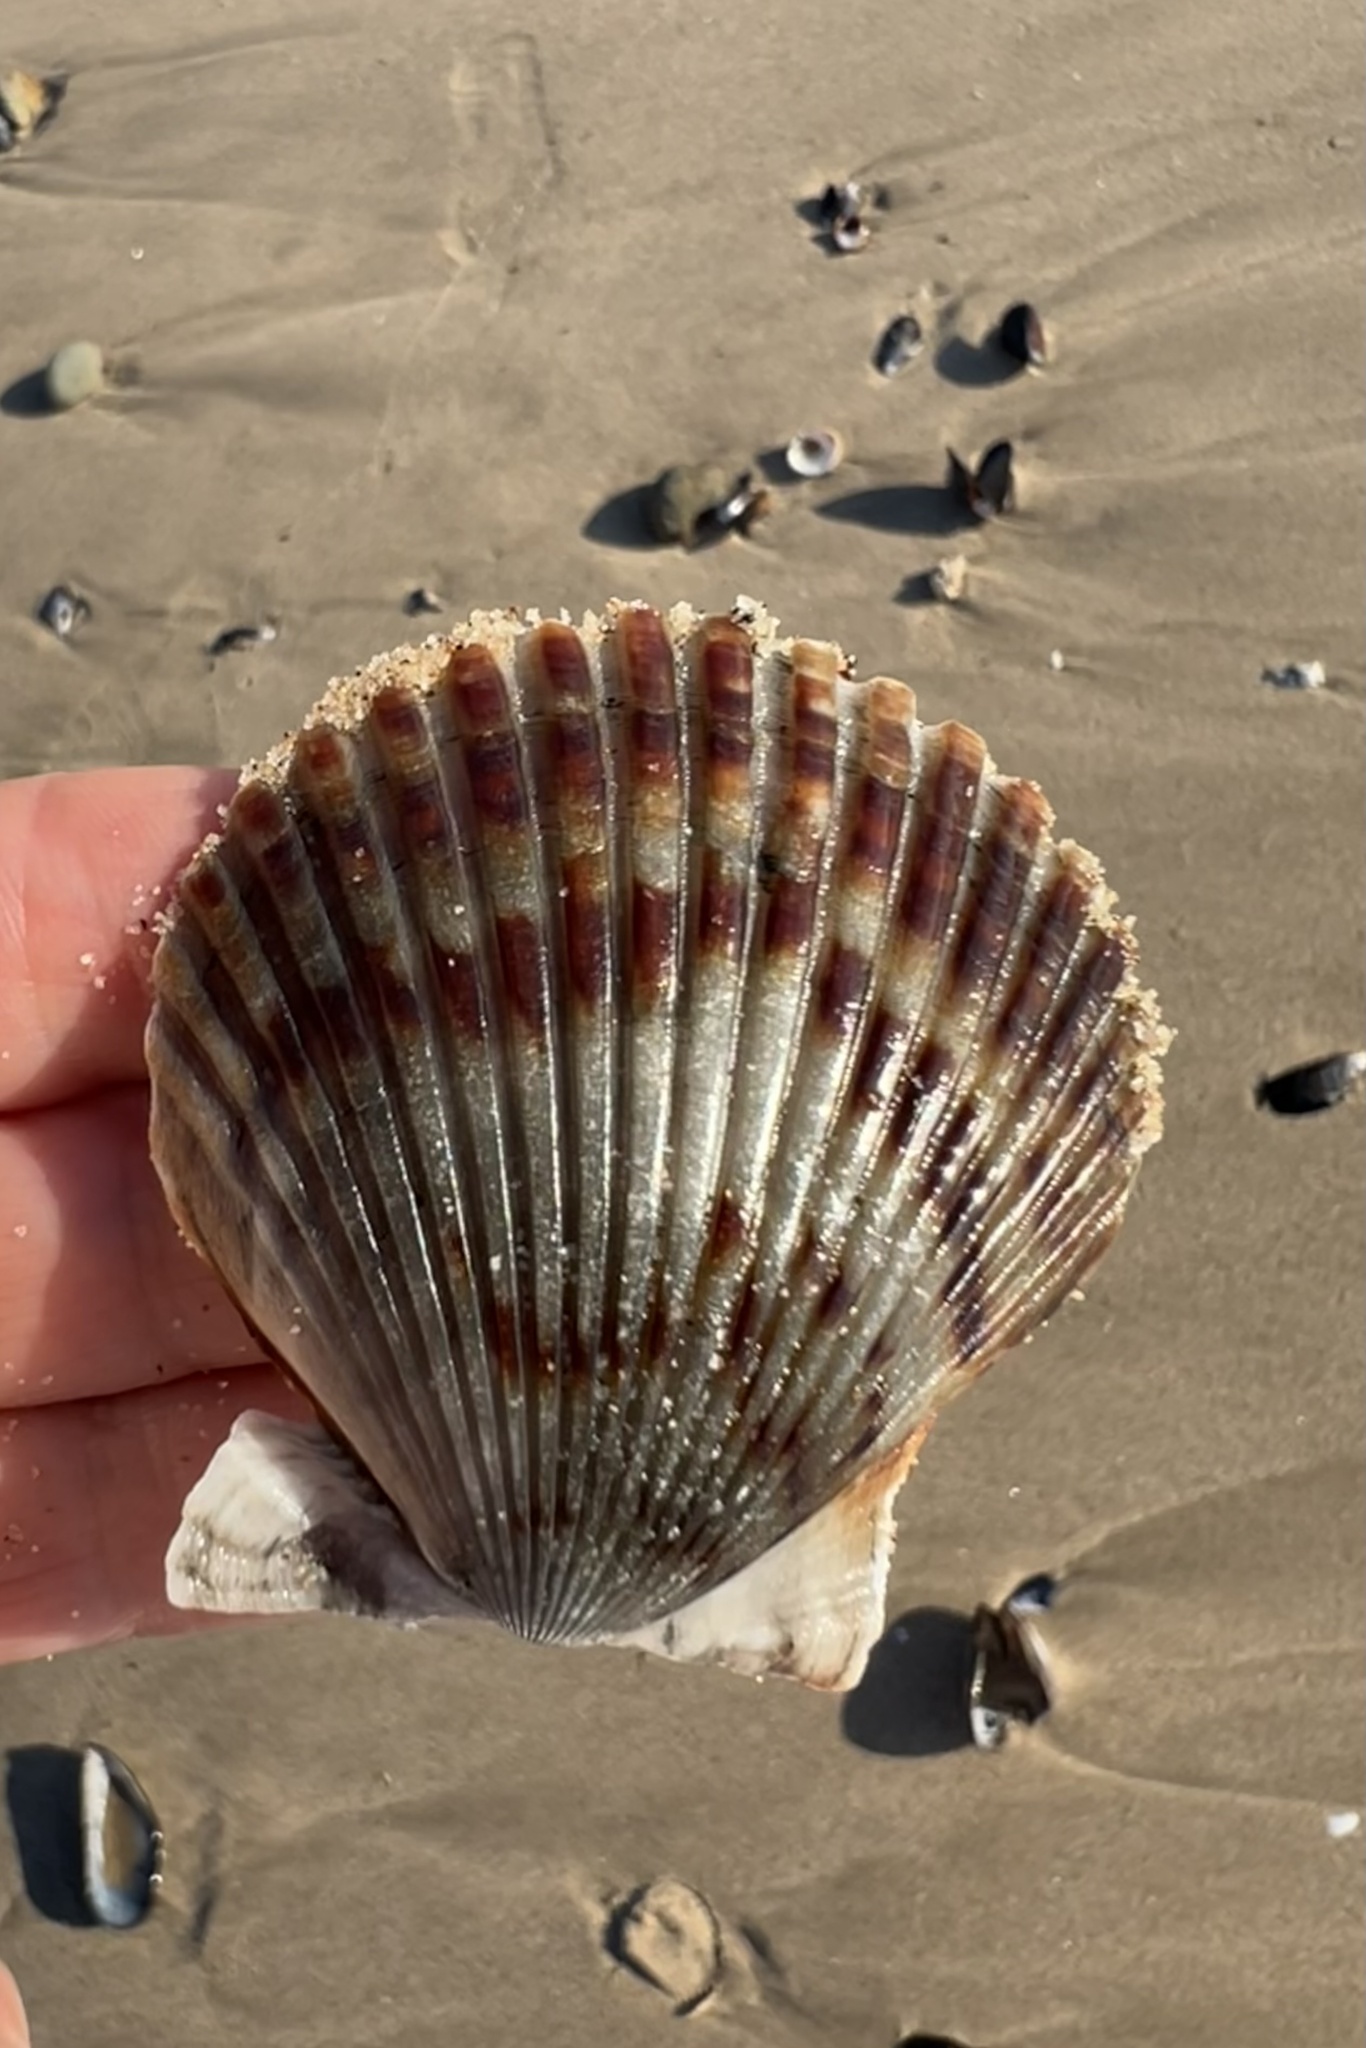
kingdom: Animalia
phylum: Mollusca
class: Bivalvia
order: Pectinida
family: Pectinidae
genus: Argopecten
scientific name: Argopecten ventricosus
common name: Catarina scallop
